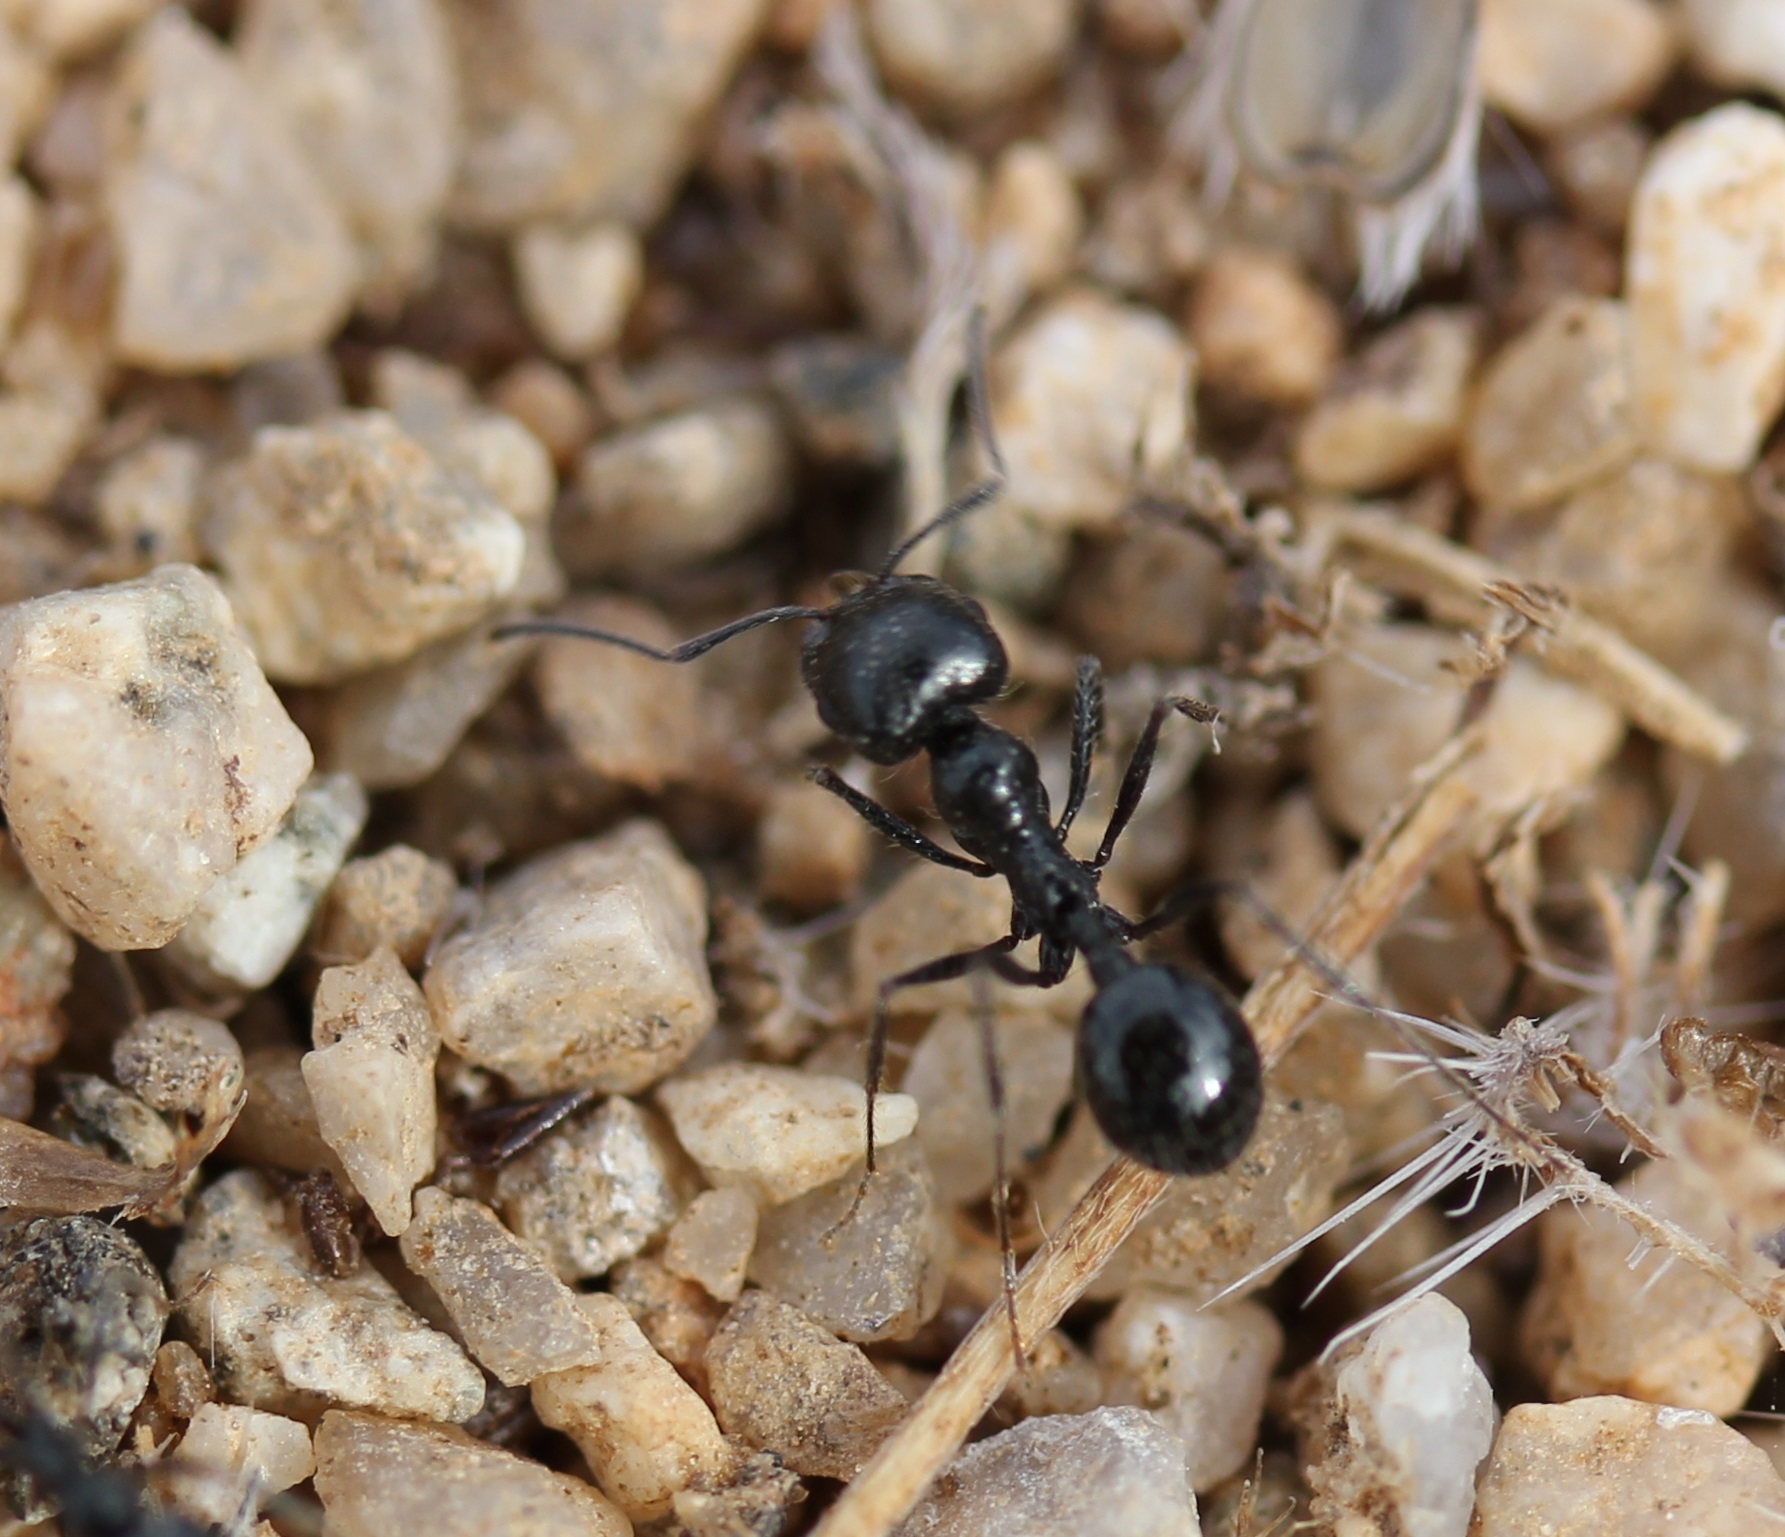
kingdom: Animalia
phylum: Arthropoda
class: Insecta
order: Hymenoptera
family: Formicidae
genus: Messor
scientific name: Messor pergandei
